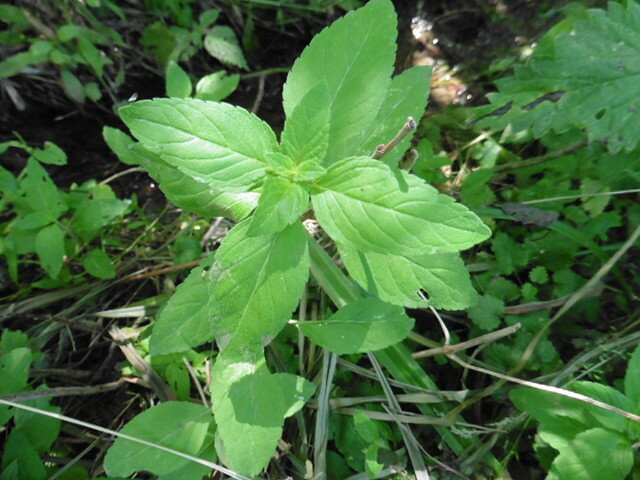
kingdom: Plantae
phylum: Tracheophyta
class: Magnoliopsida
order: Lamiales
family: Lamiaceae
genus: Mentha
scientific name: Mentha arvensis
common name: Corn mint
